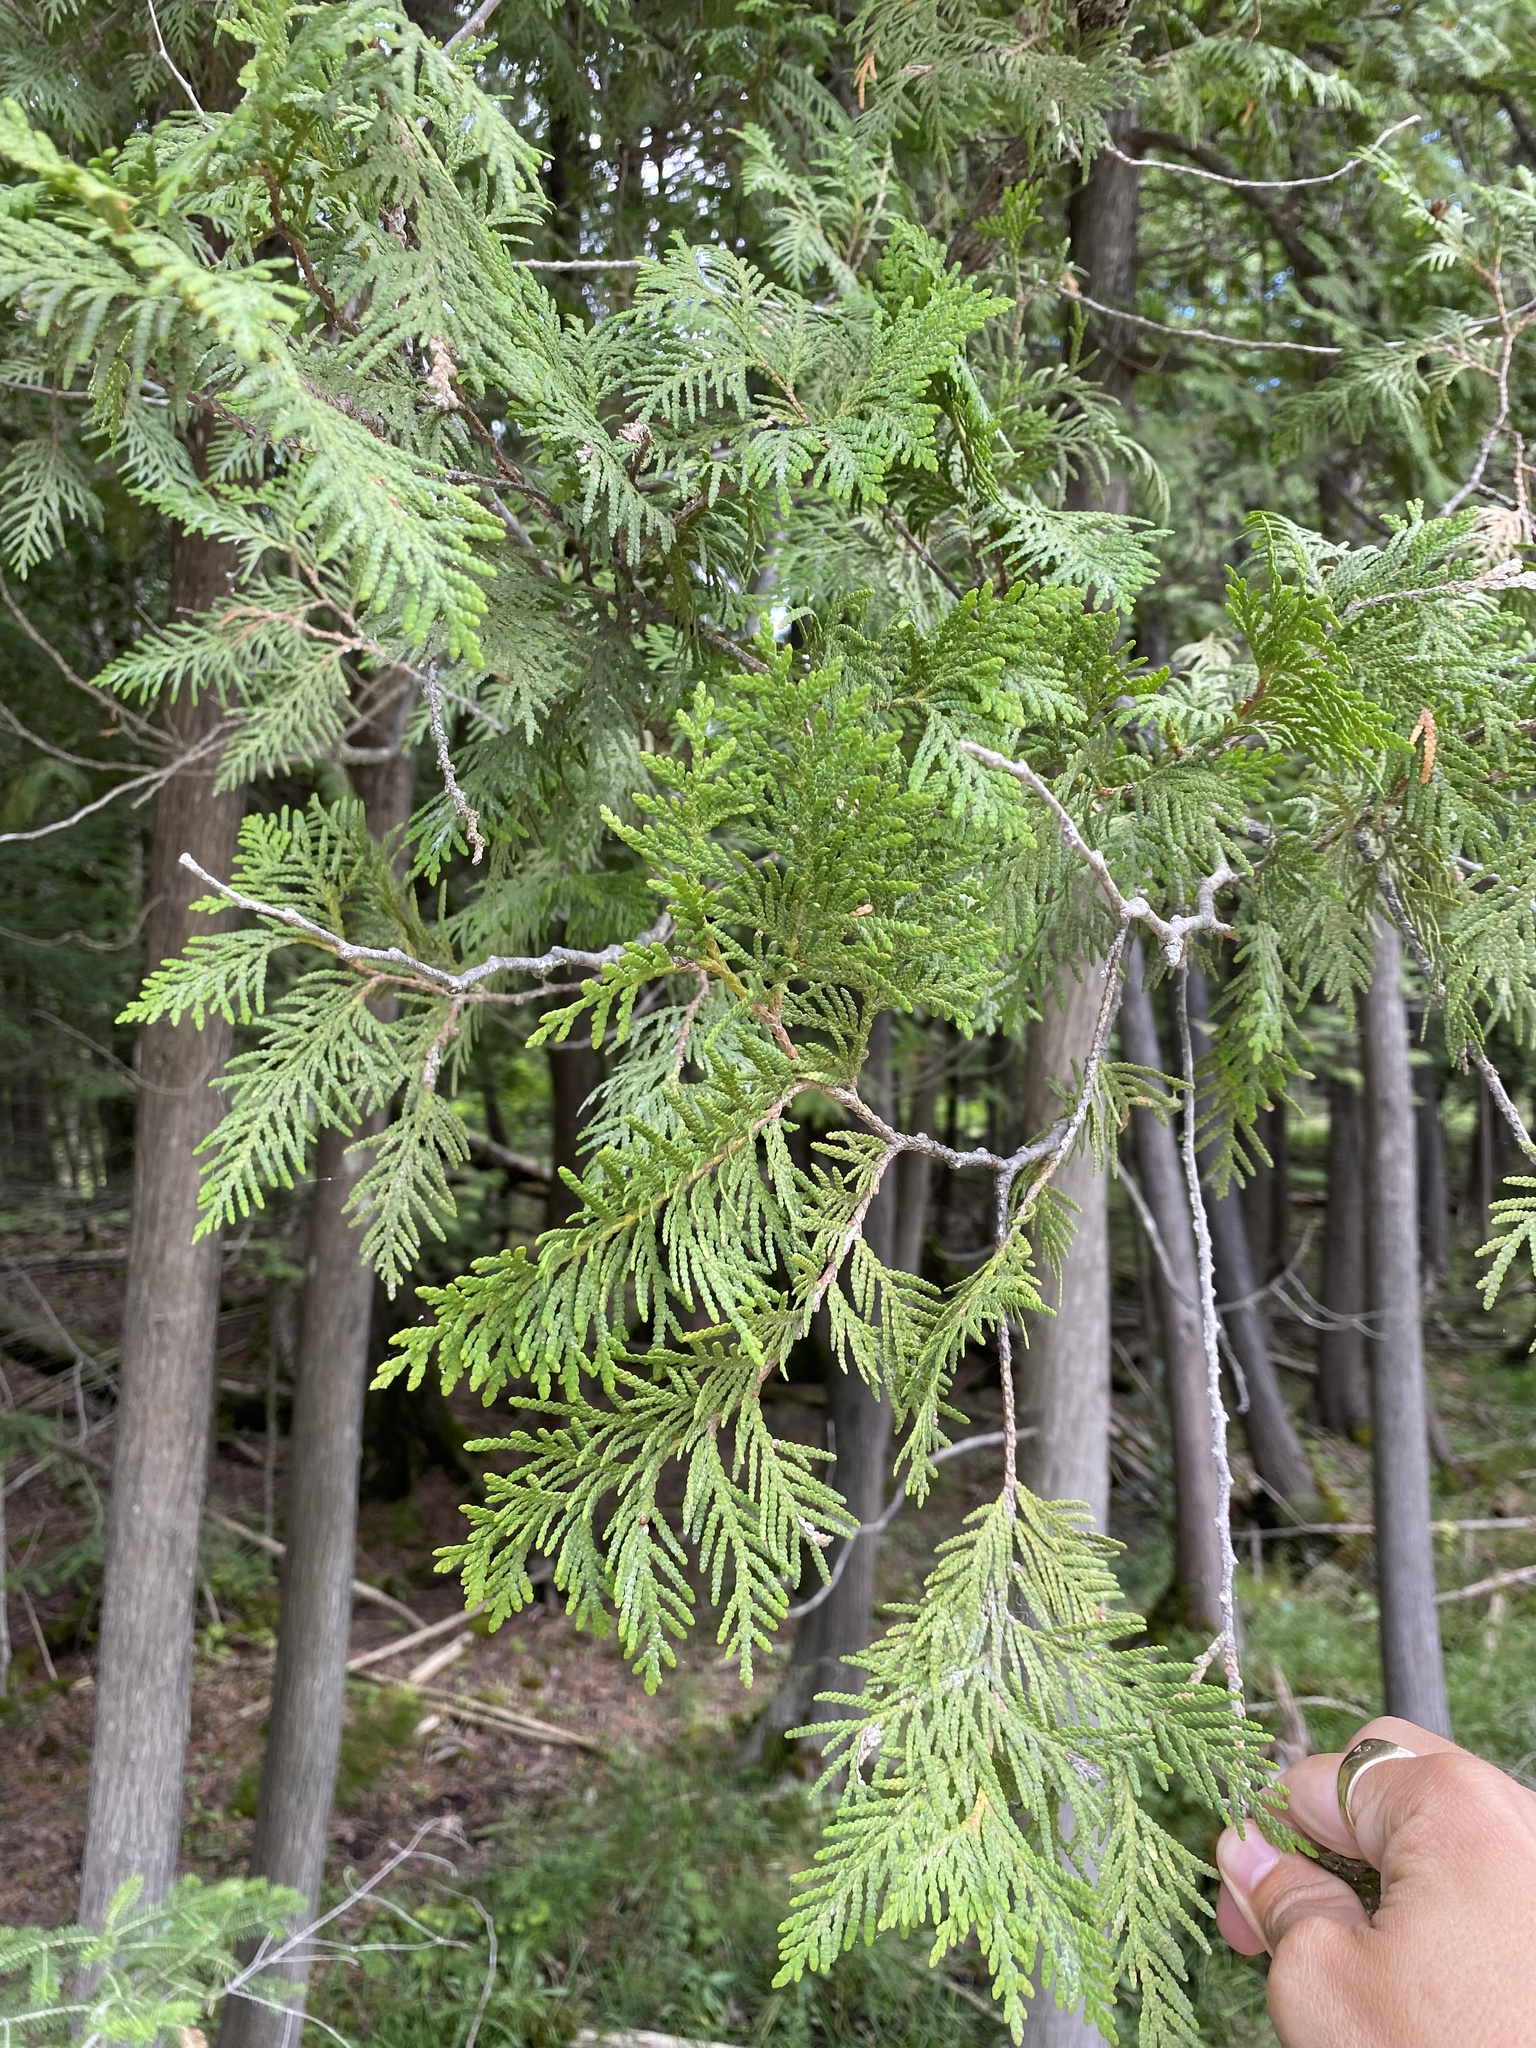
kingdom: Plantae
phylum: Tracheophyta
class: Pinopsida
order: Pinales
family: Cupressaceae
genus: Thuja
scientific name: Thuja occidentalis
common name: Northern white-cedar
